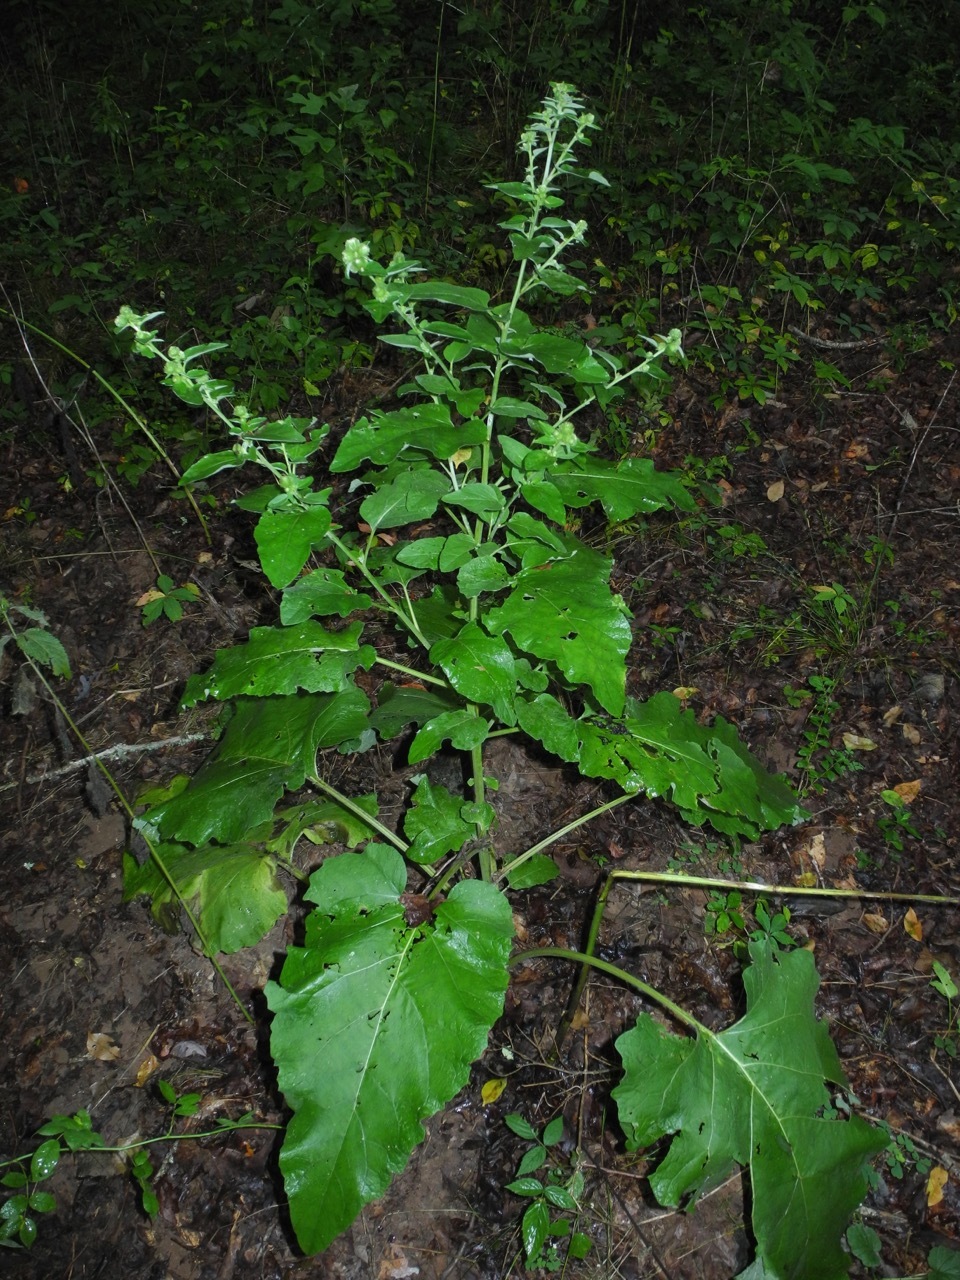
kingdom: Plantae
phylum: Tracheophyta
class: Magnoliopsida
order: Asterales
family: Asteraceae
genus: Arctium
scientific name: Arctium minus
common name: Lesser burdock
